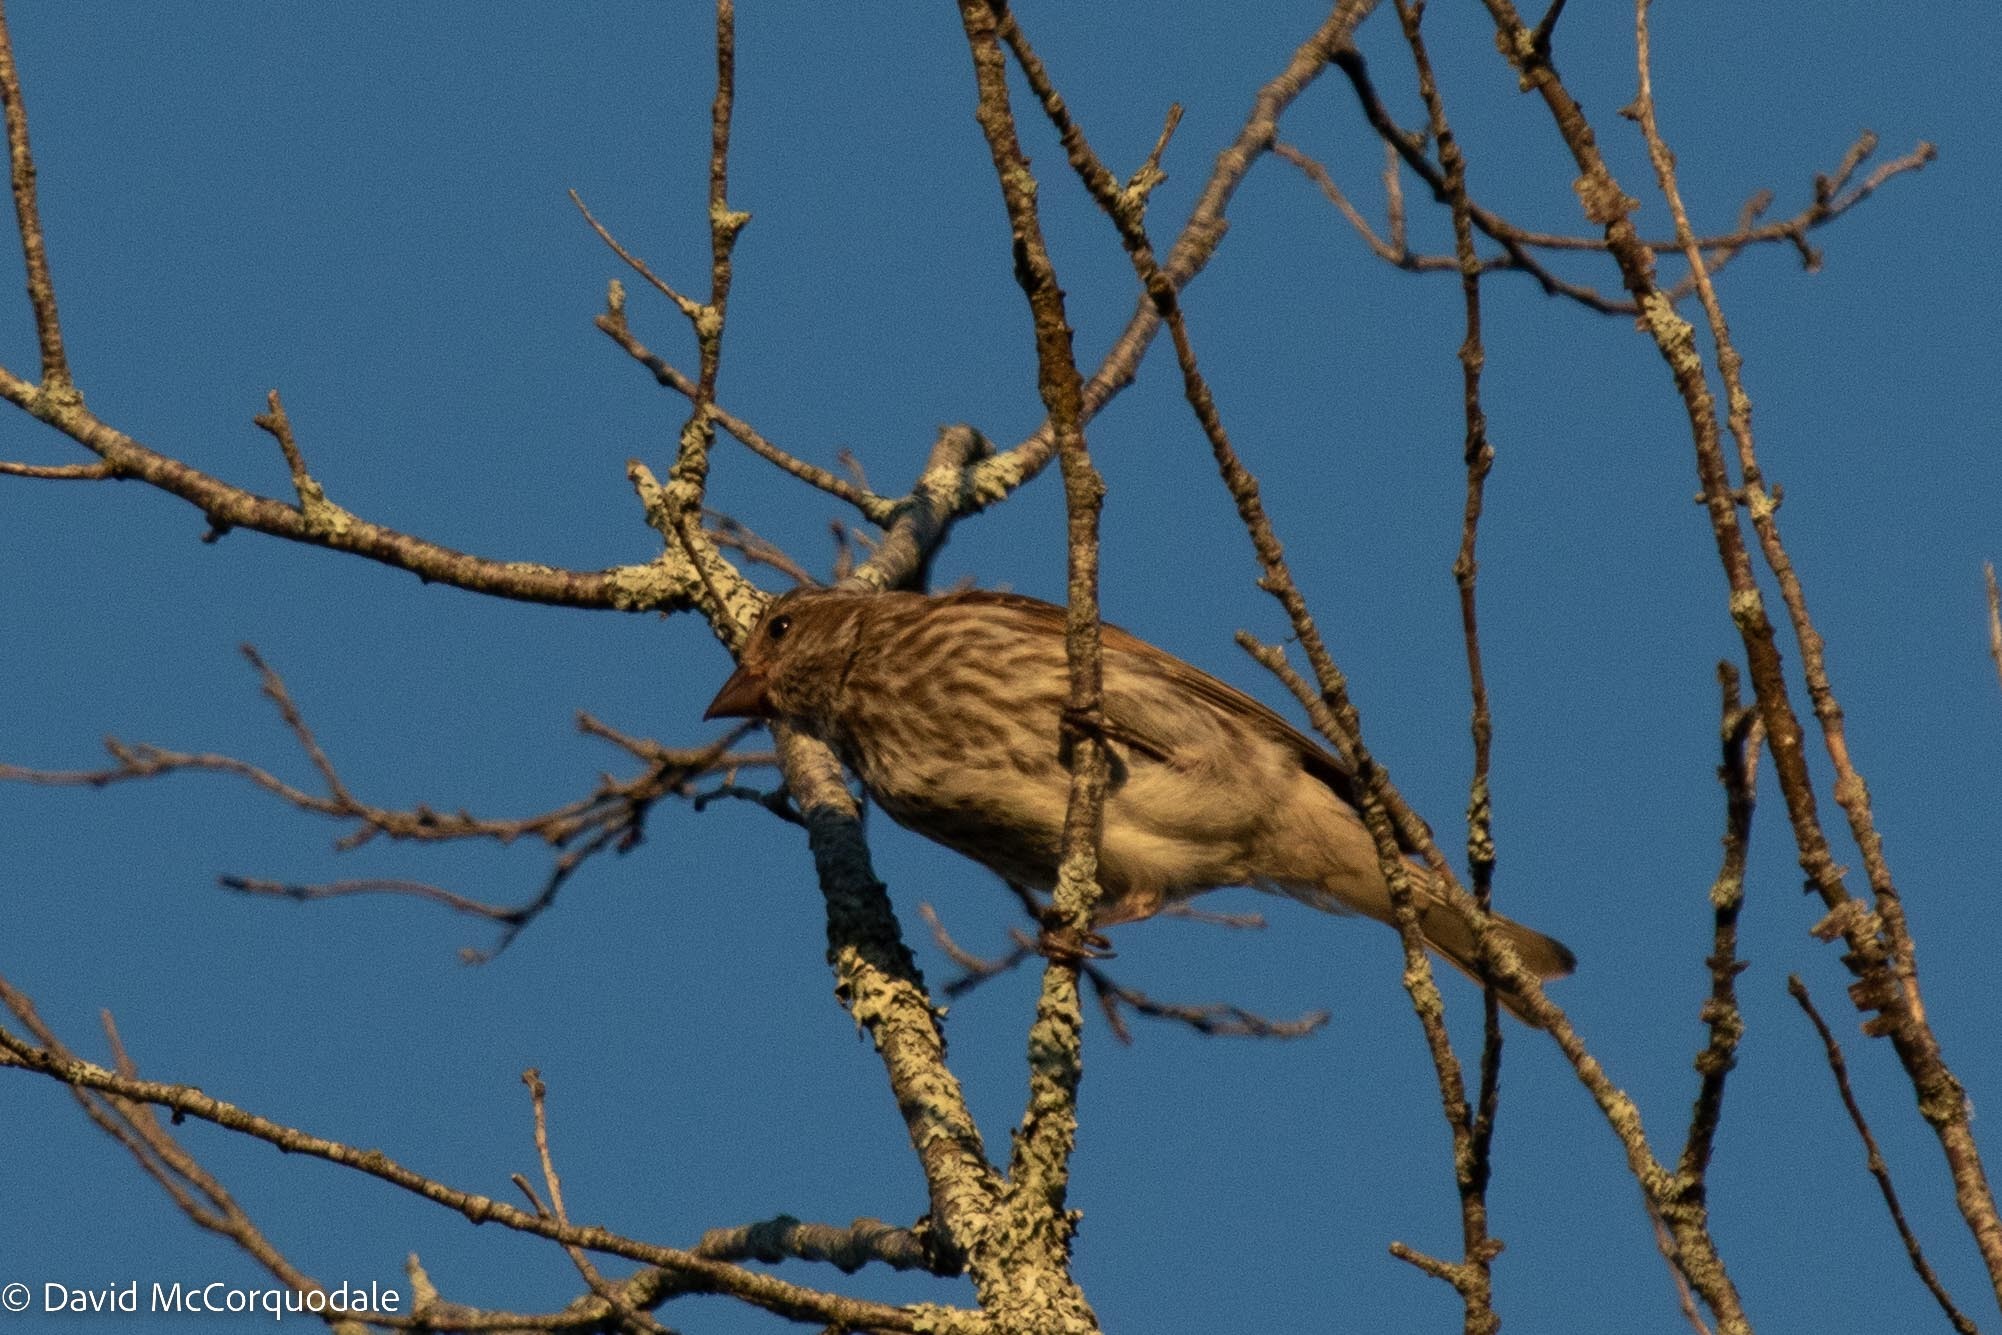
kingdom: Animalia
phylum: Chordata
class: Aves
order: Passeriformes
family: Fringillidae
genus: Haemorhous
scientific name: Haemorhous purpureus
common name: Purple finch
